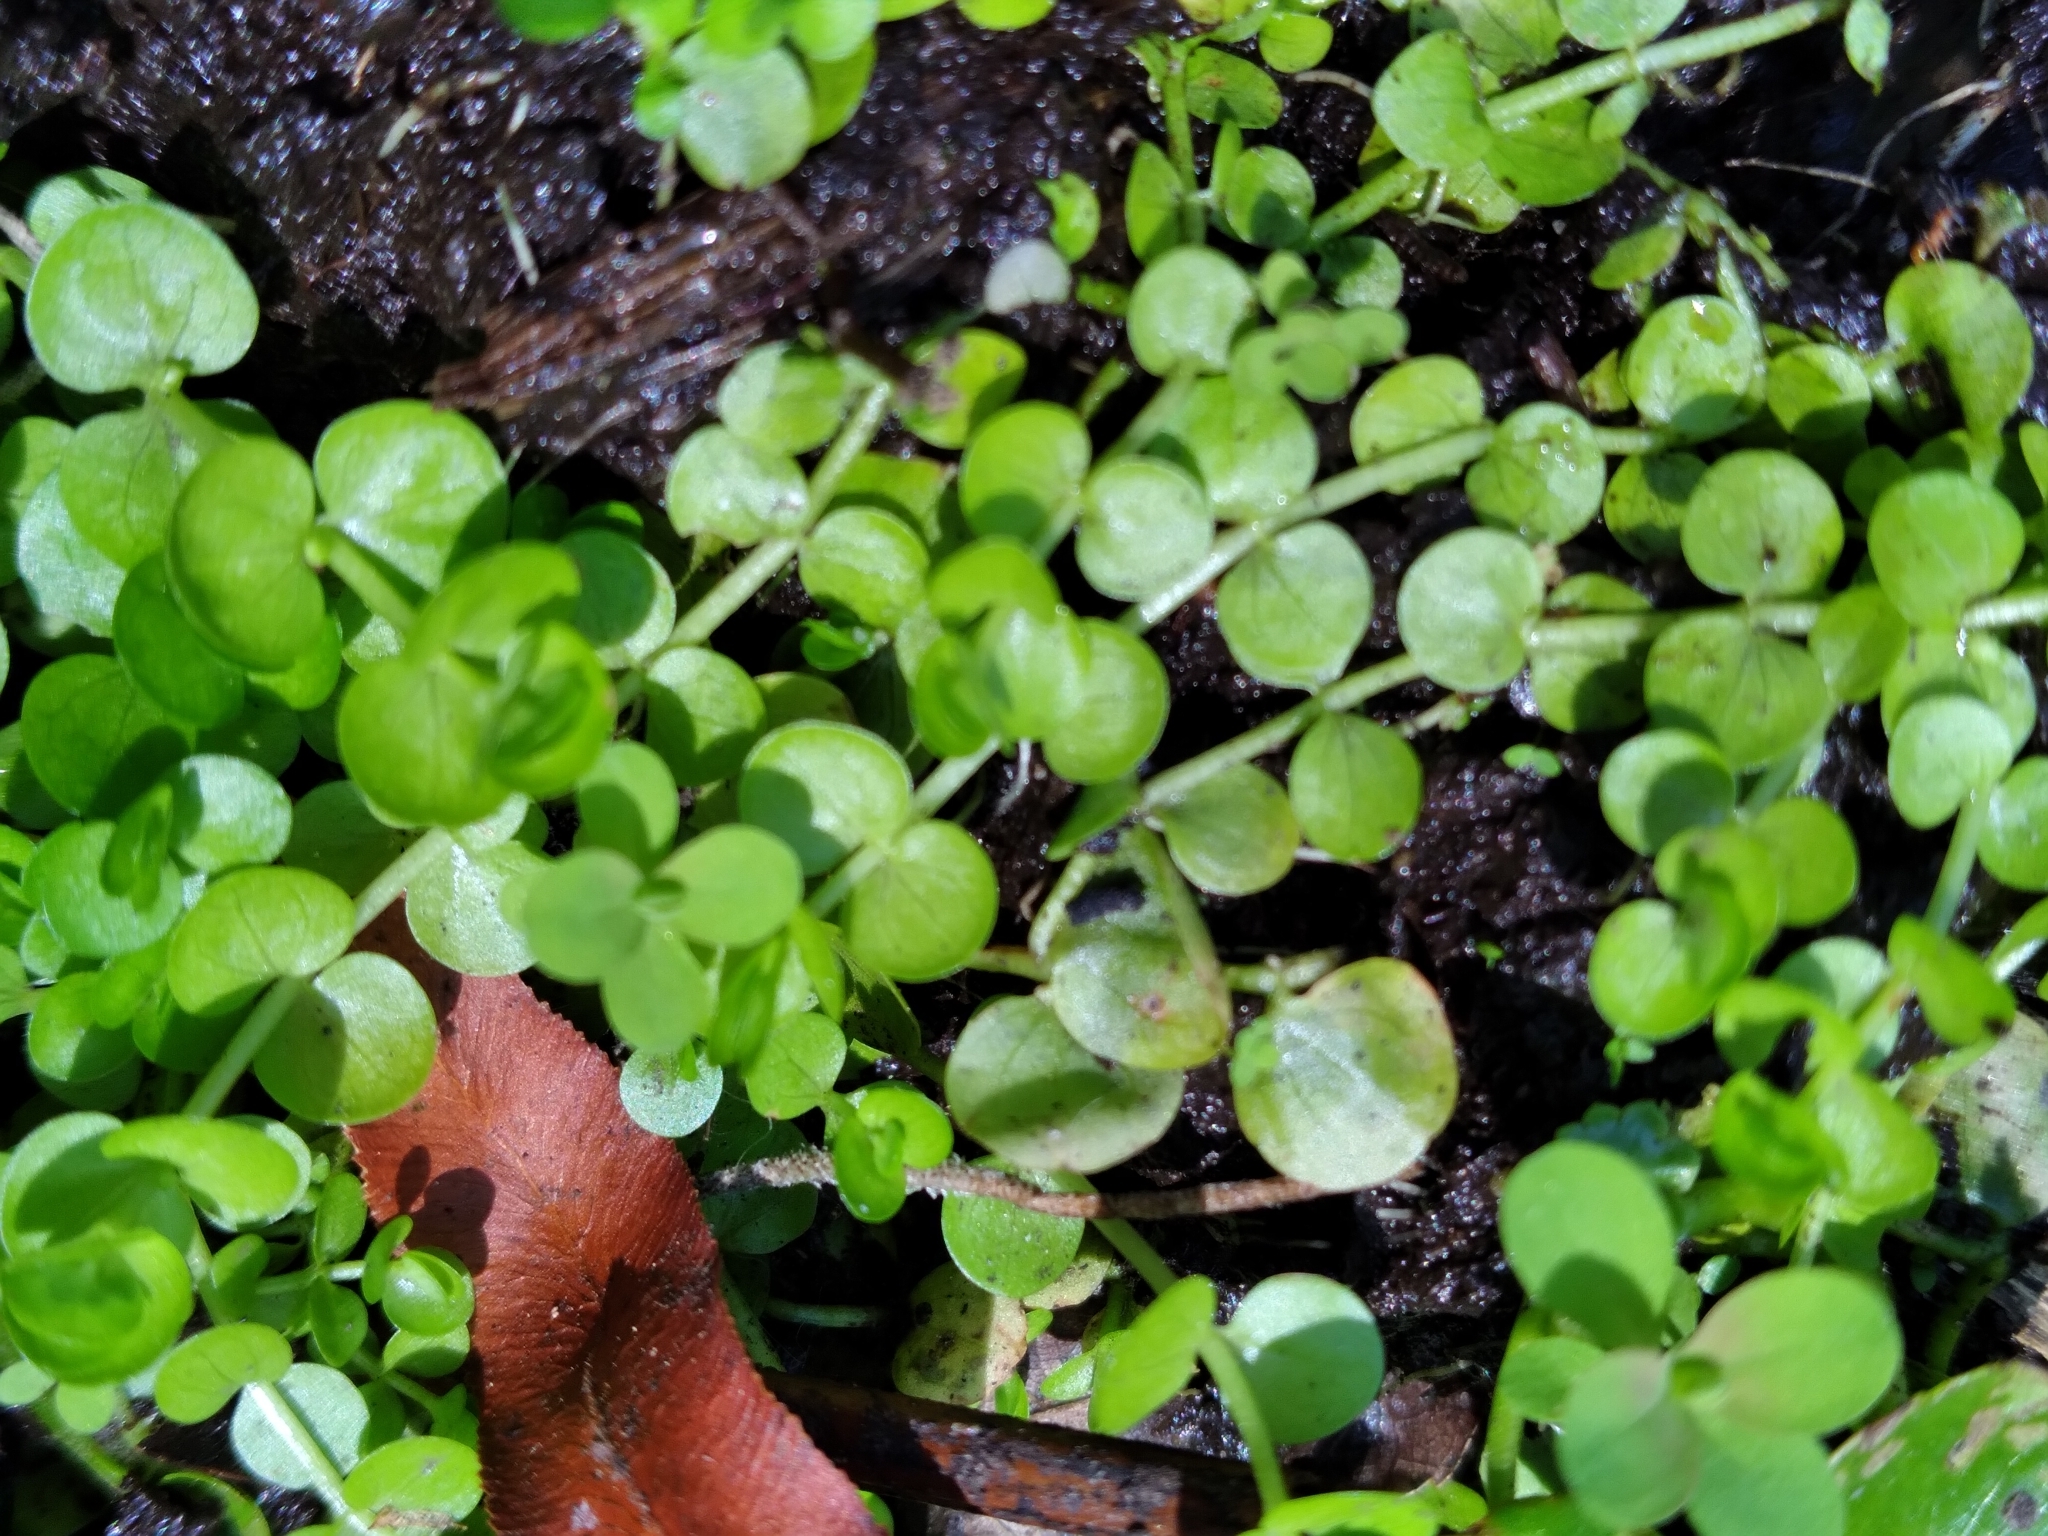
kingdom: Plantae
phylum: Tracheophyta
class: Magnoliopsida
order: Lamiales
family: Linderniaceae
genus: Micranthemum
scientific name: Micranthemum umbrosum
